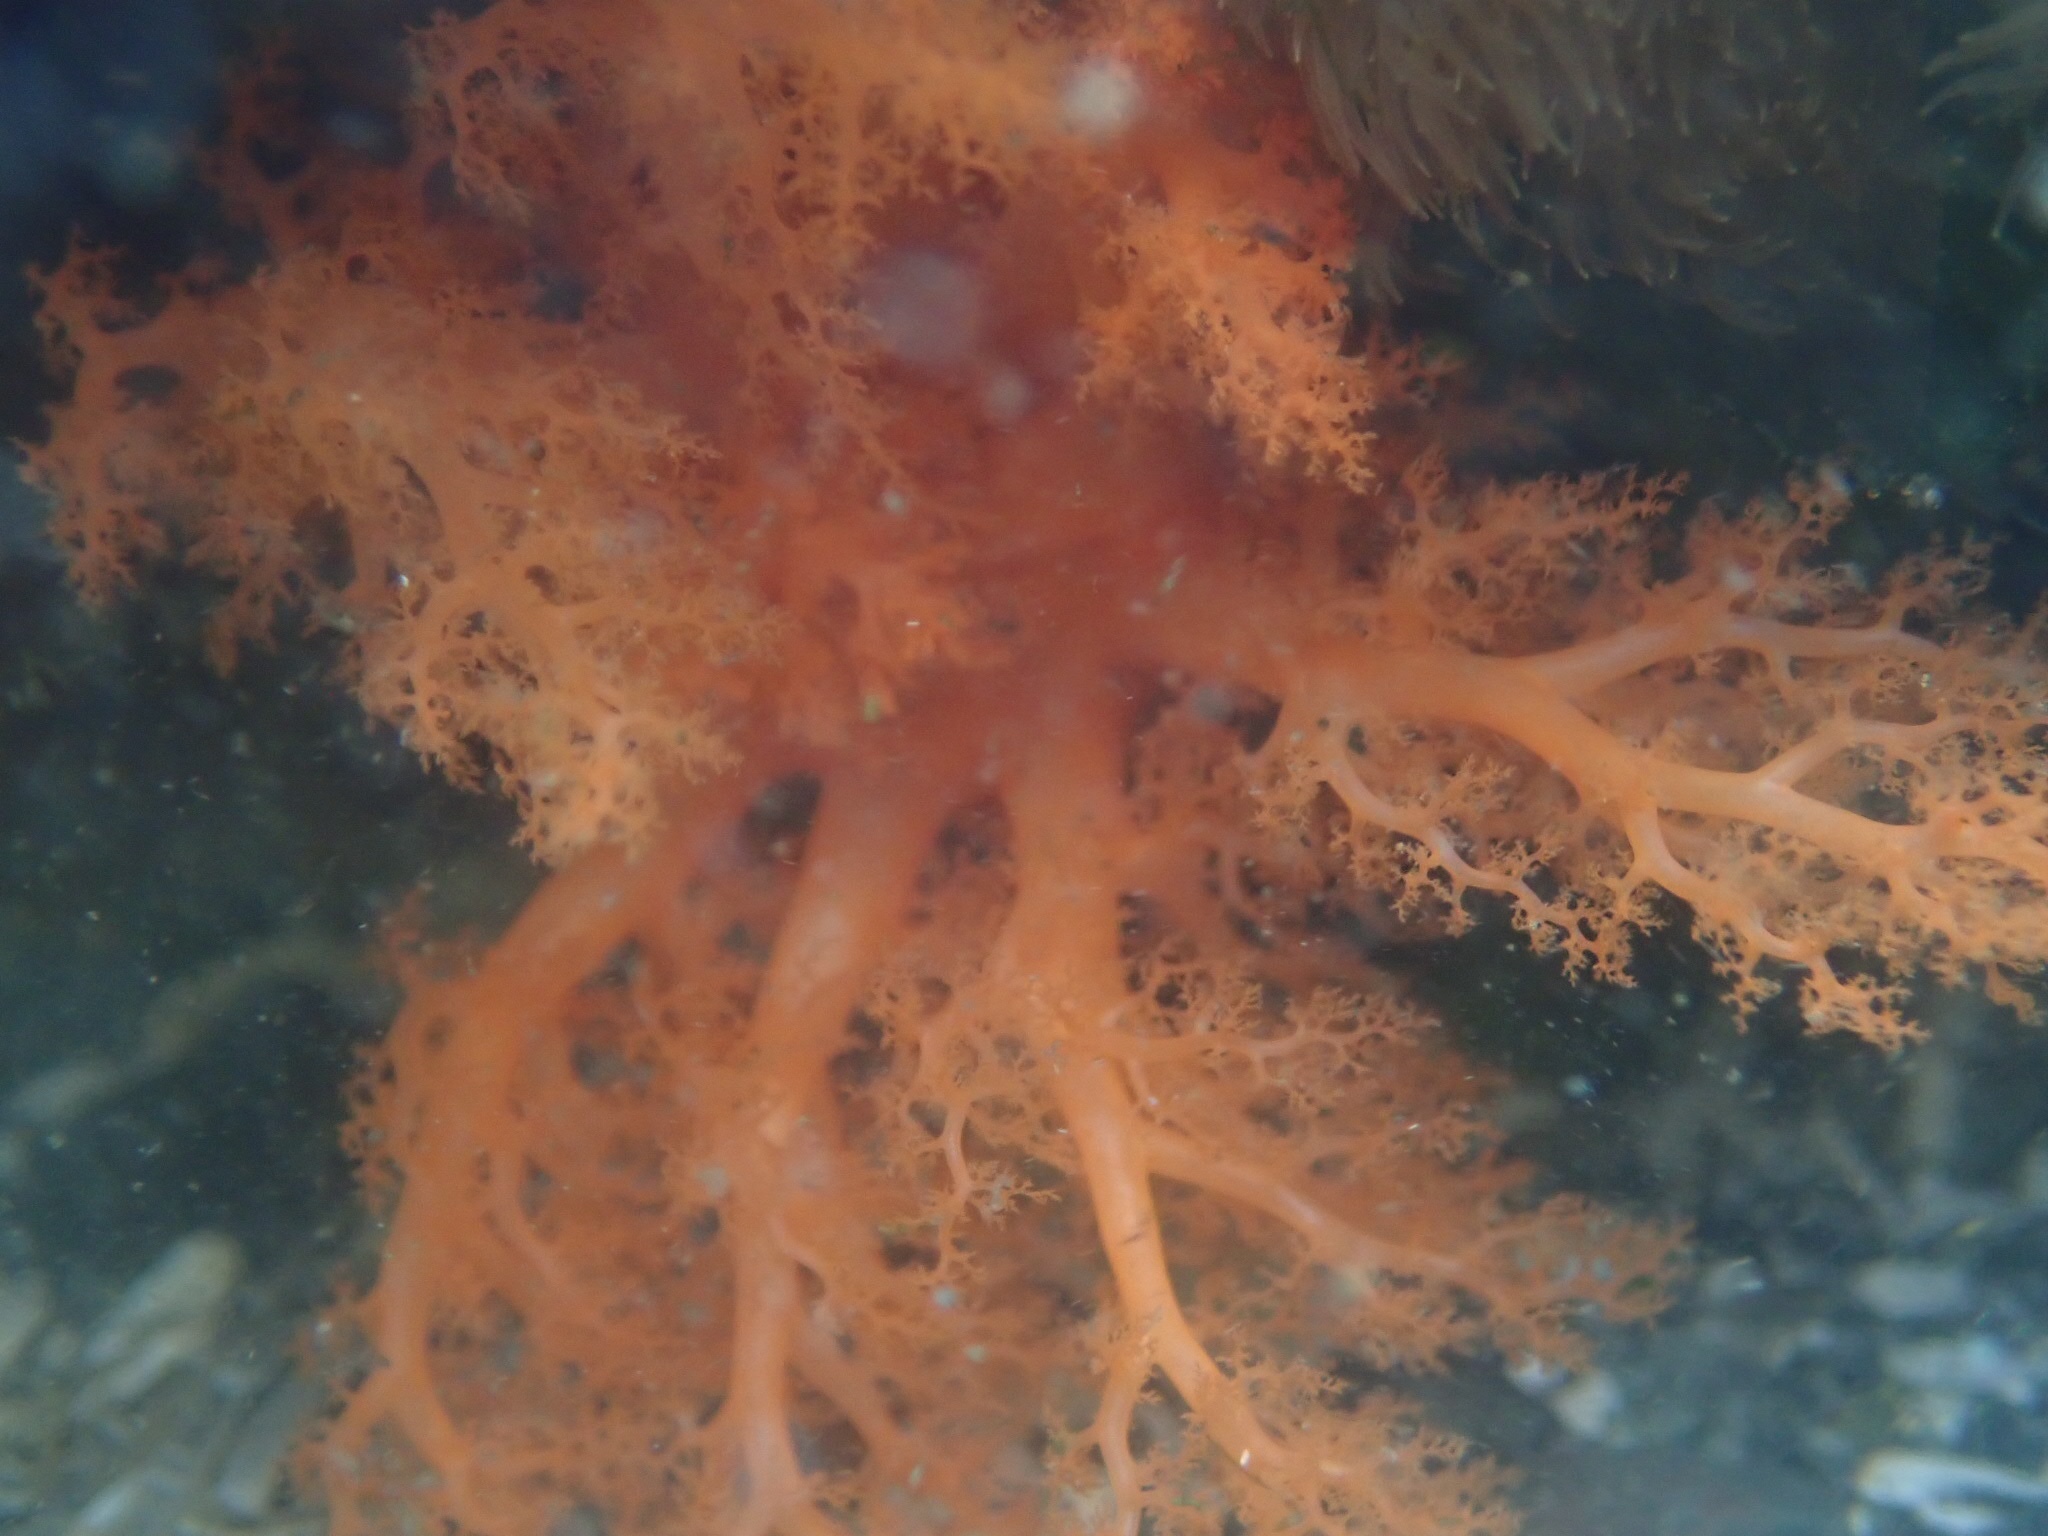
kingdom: Animalia
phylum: Echinodermata
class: Holothuroidea
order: Dendrochirotida
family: Cucumariidae
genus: Cucumaria
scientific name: Cucumaria miniata
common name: Orange sea cucumber
